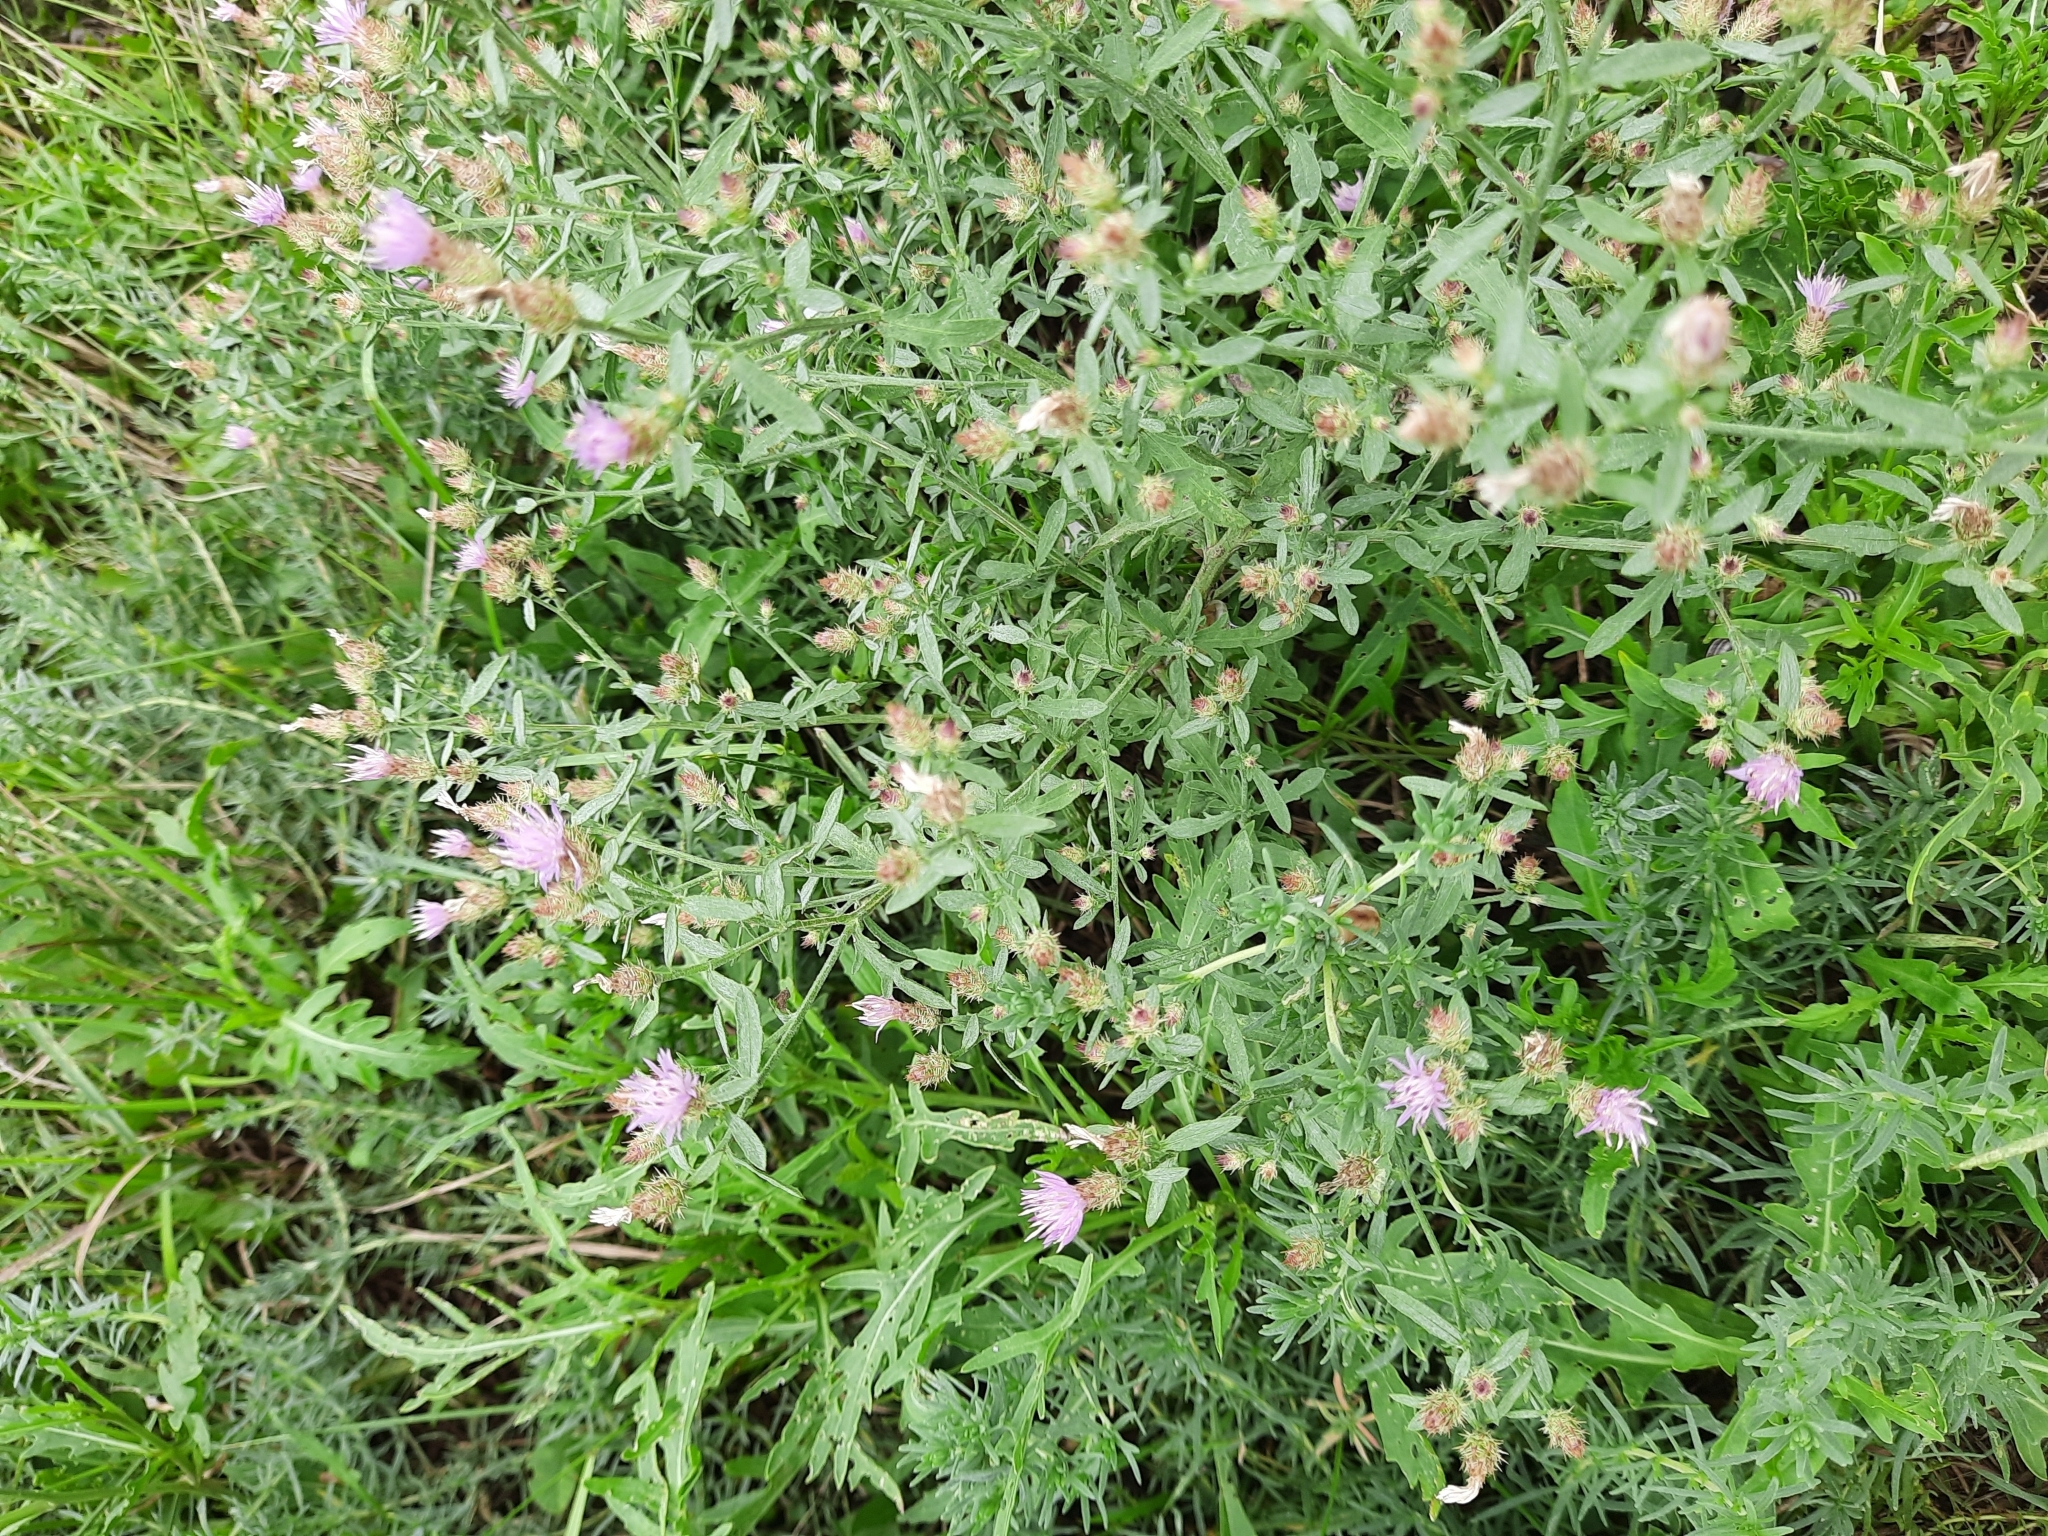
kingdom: Plantae
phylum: Tracheophyta
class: Magnoliopsida
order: Asterales
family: Asteraceae
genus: Centaurea
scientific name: Centaurea diffusa
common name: Diffuse knapweed
